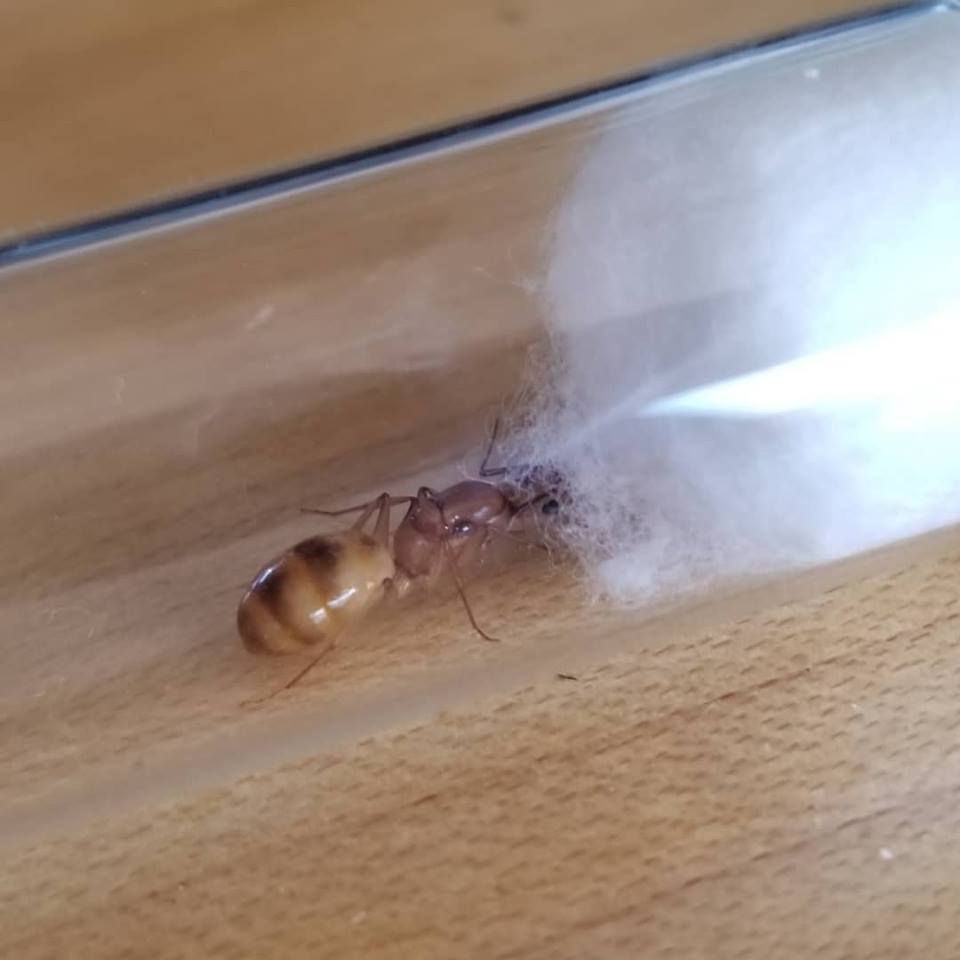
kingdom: Animalia
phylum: Arthropoda
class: Insecta
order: Hymenoptera
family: Formicidae
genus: Camponotus
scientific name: Camponotus fragilis
